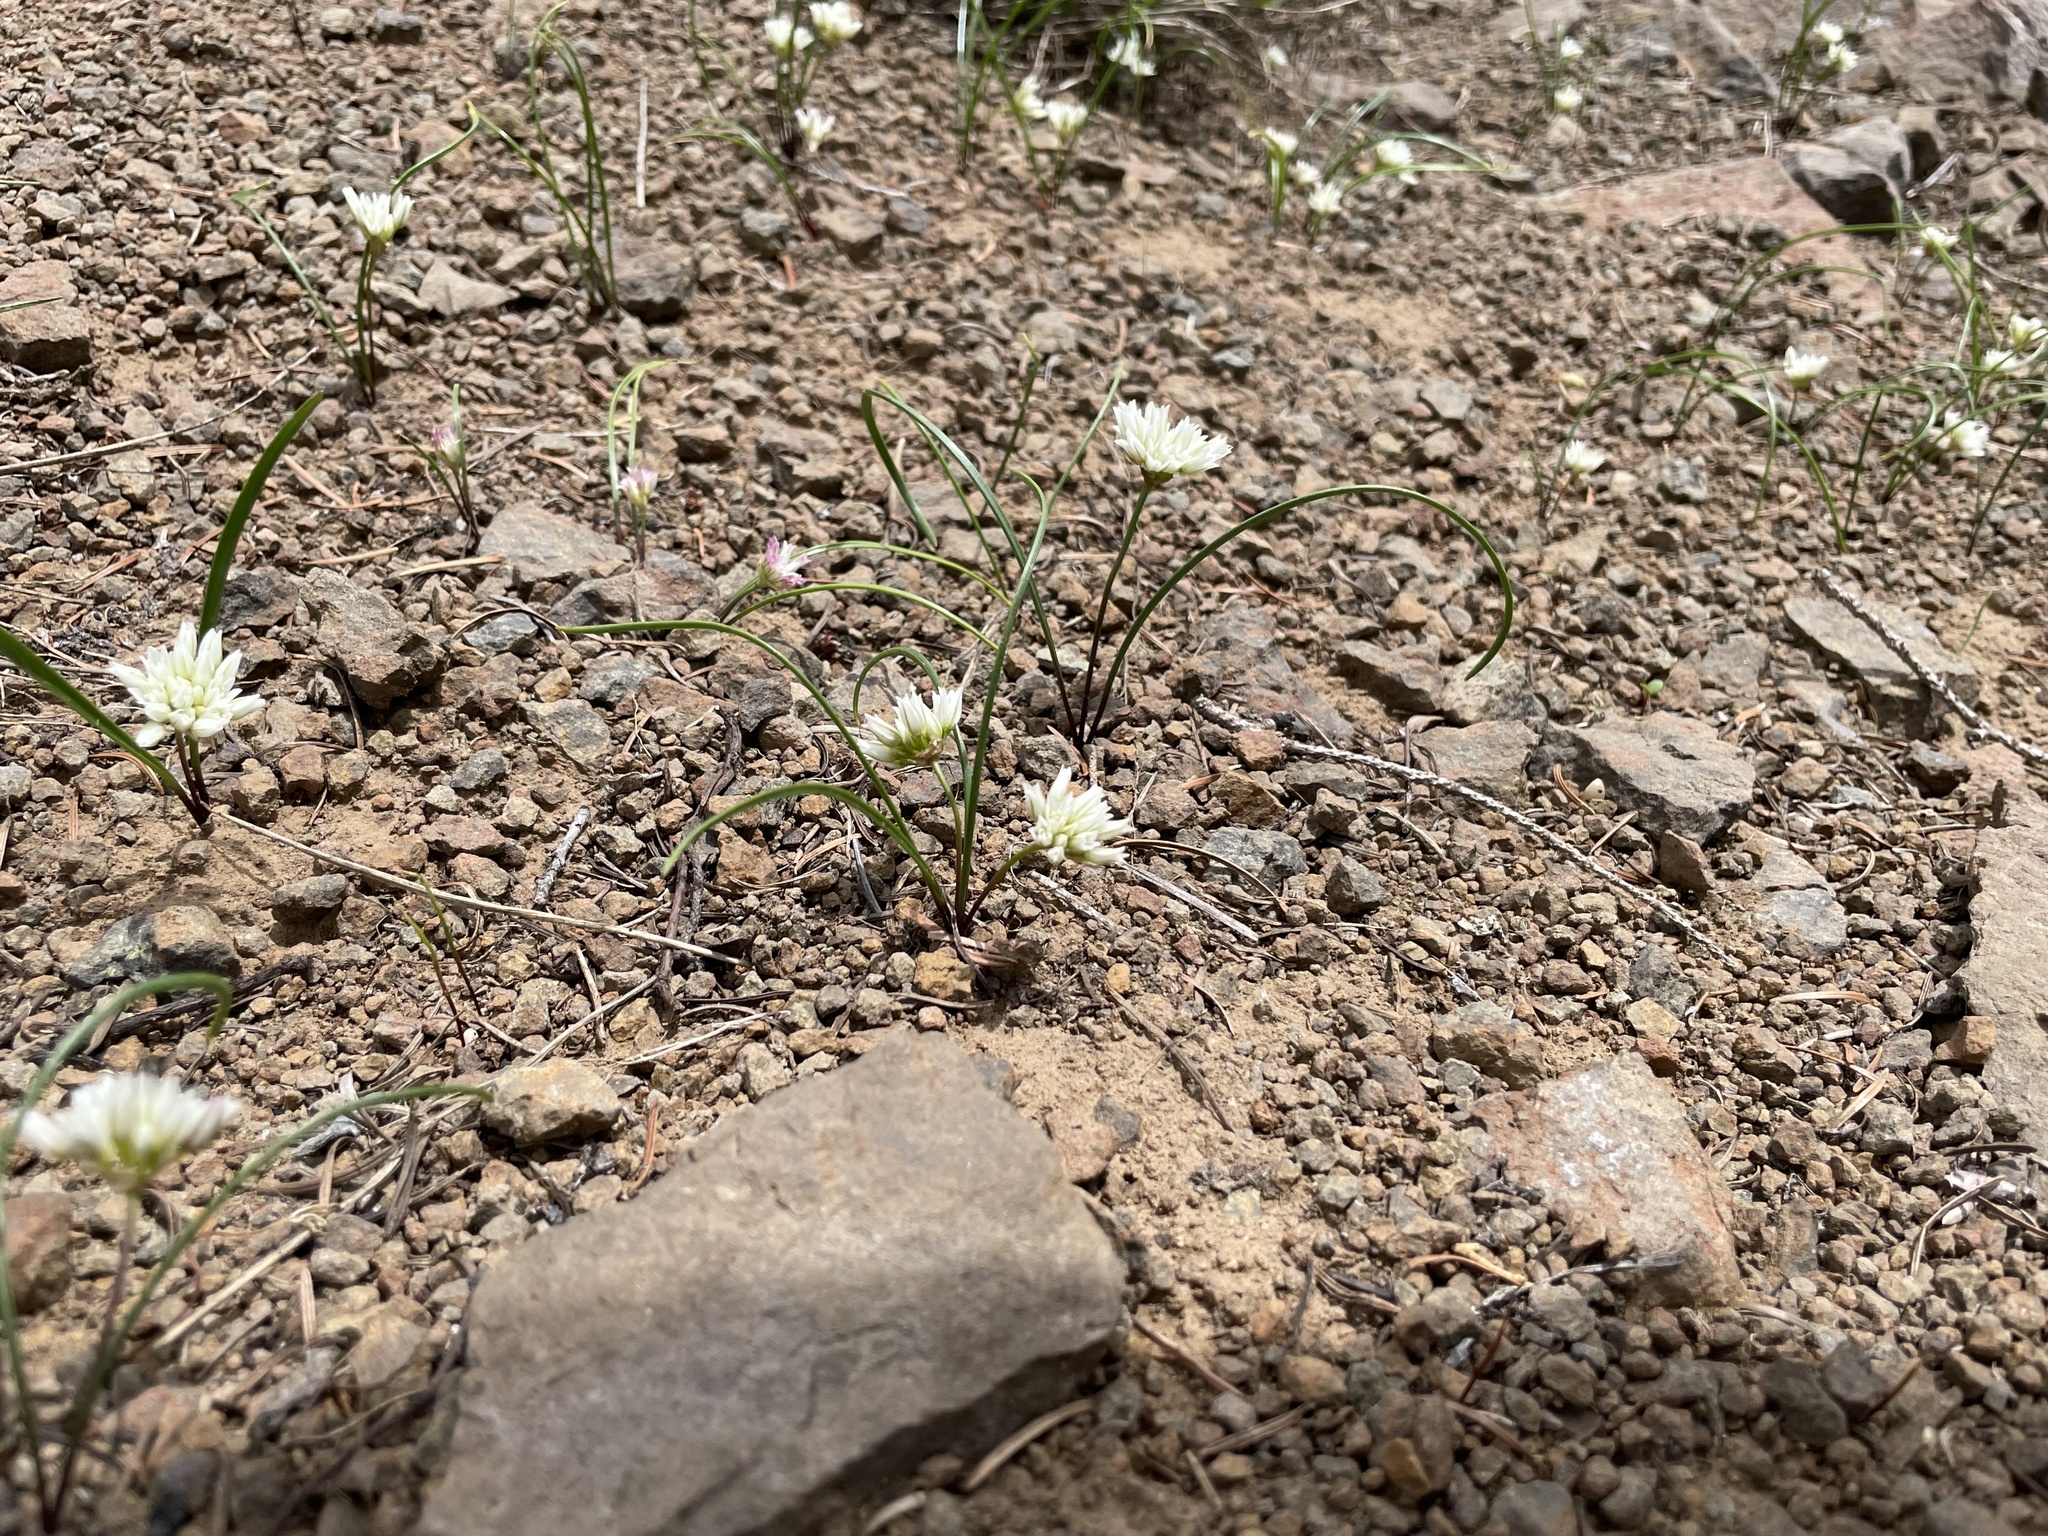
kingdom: Plantae
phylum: Tracheophyta
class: Liliopsida
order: Asparagales
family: Amaryllidaceae
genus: Allium
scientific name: Allium fibrillum
